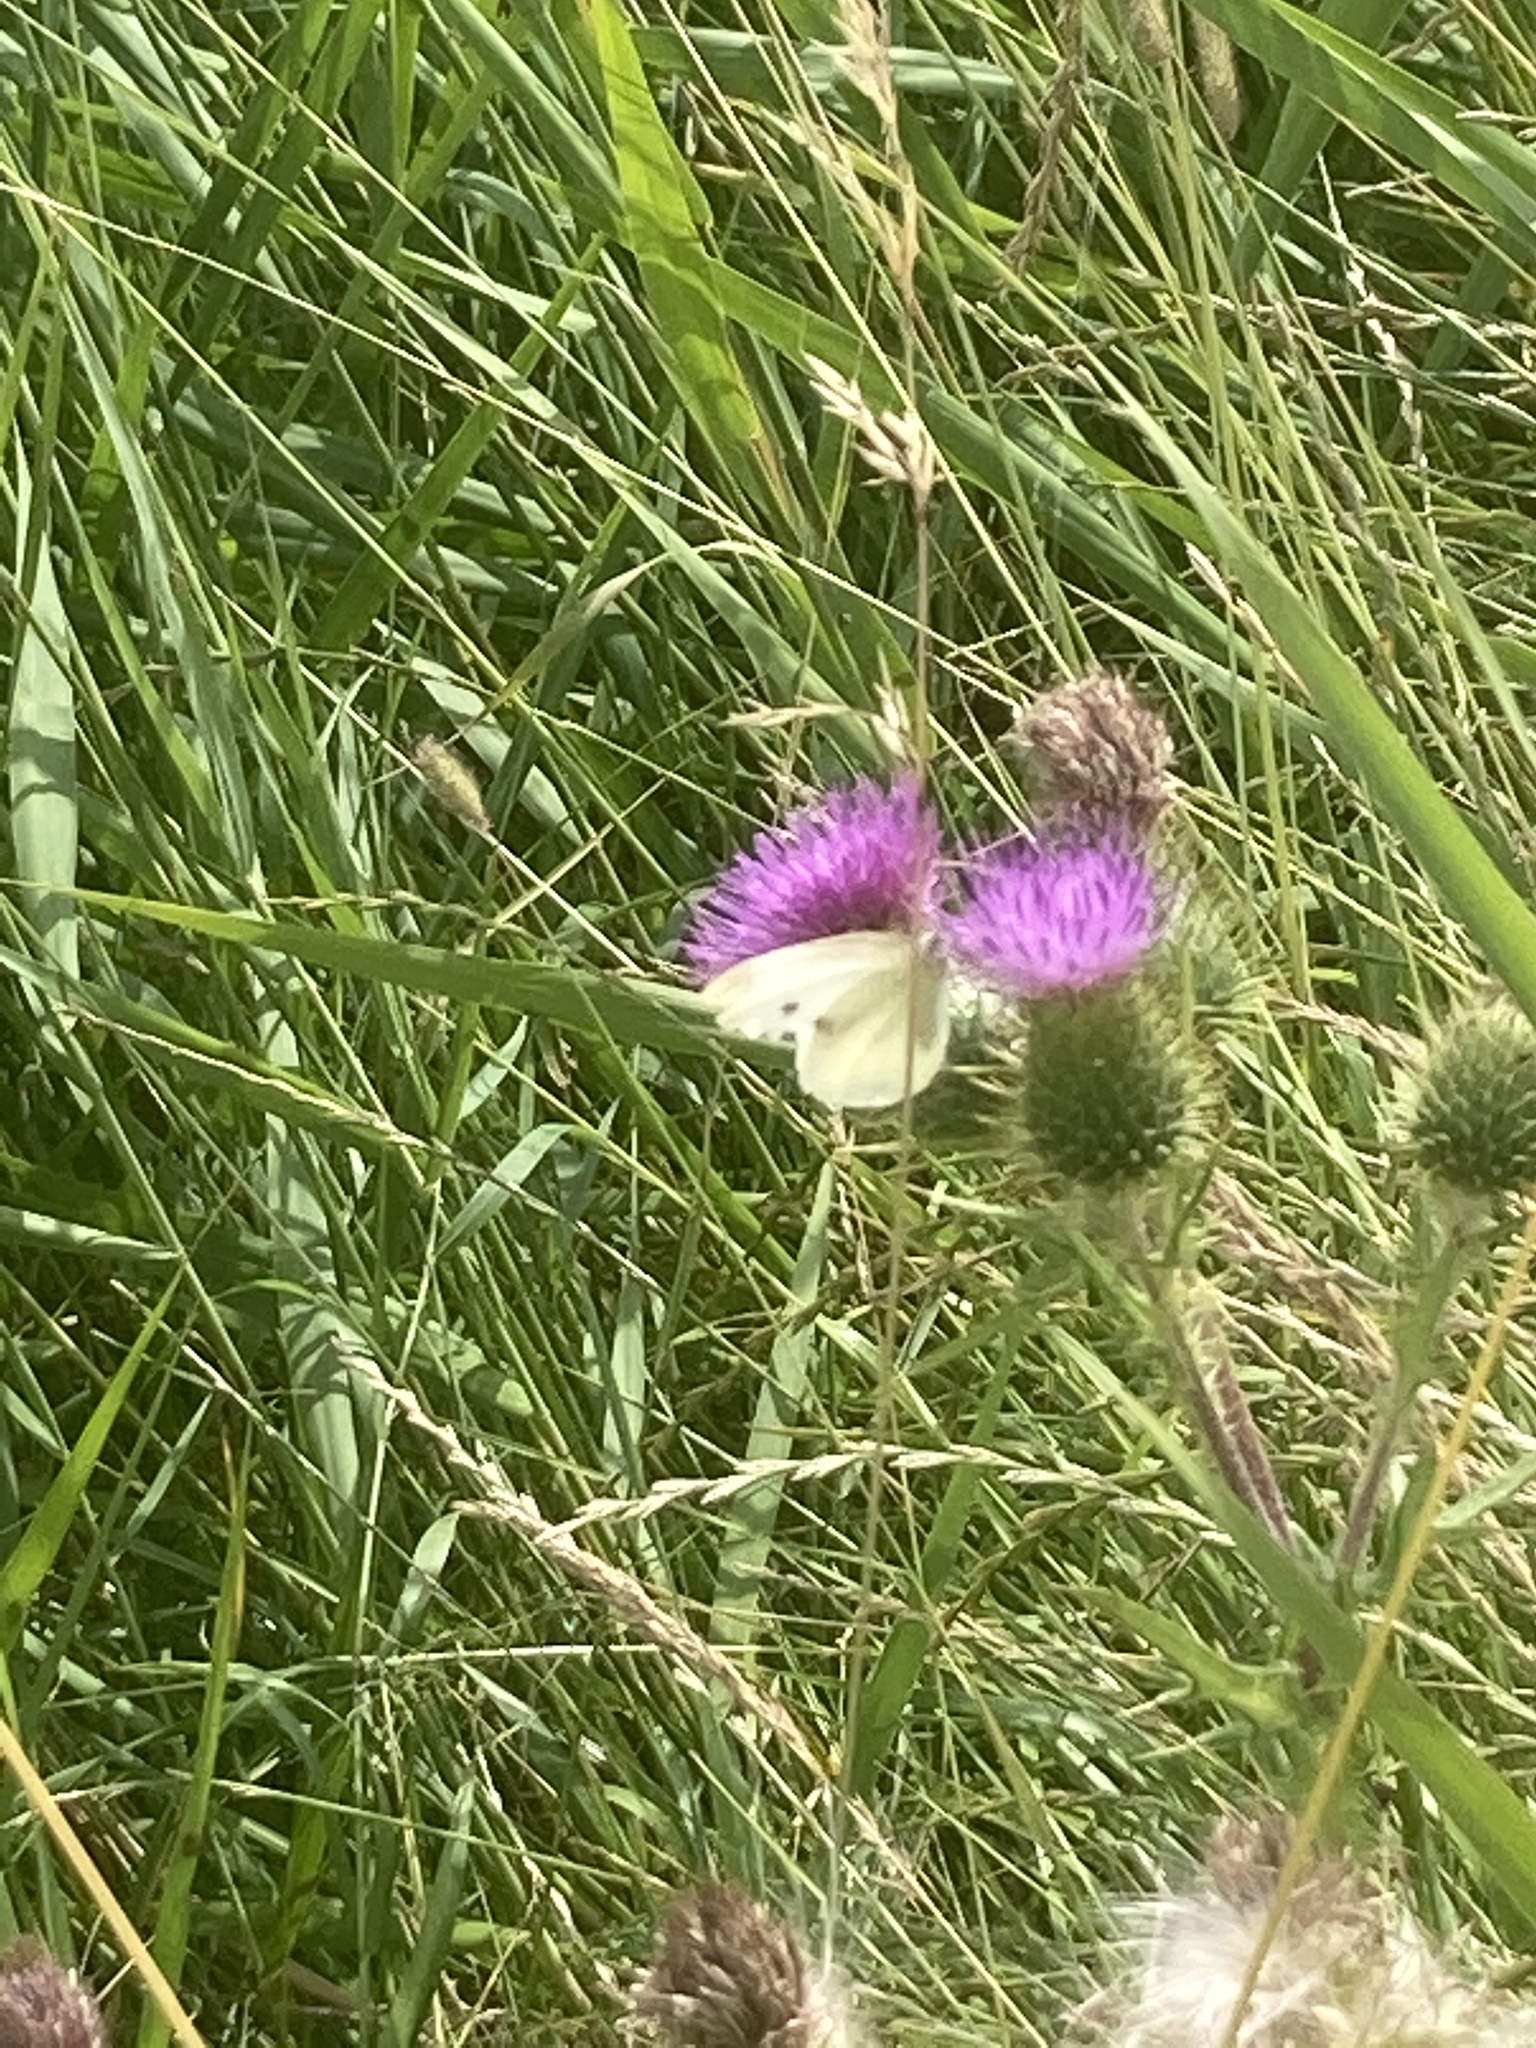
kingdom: Animalia
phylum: Arthropoda
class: Insecta
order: Lepidoptera
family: Pieridae
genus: Pieris
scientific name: Pieris rapae
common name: Small white
